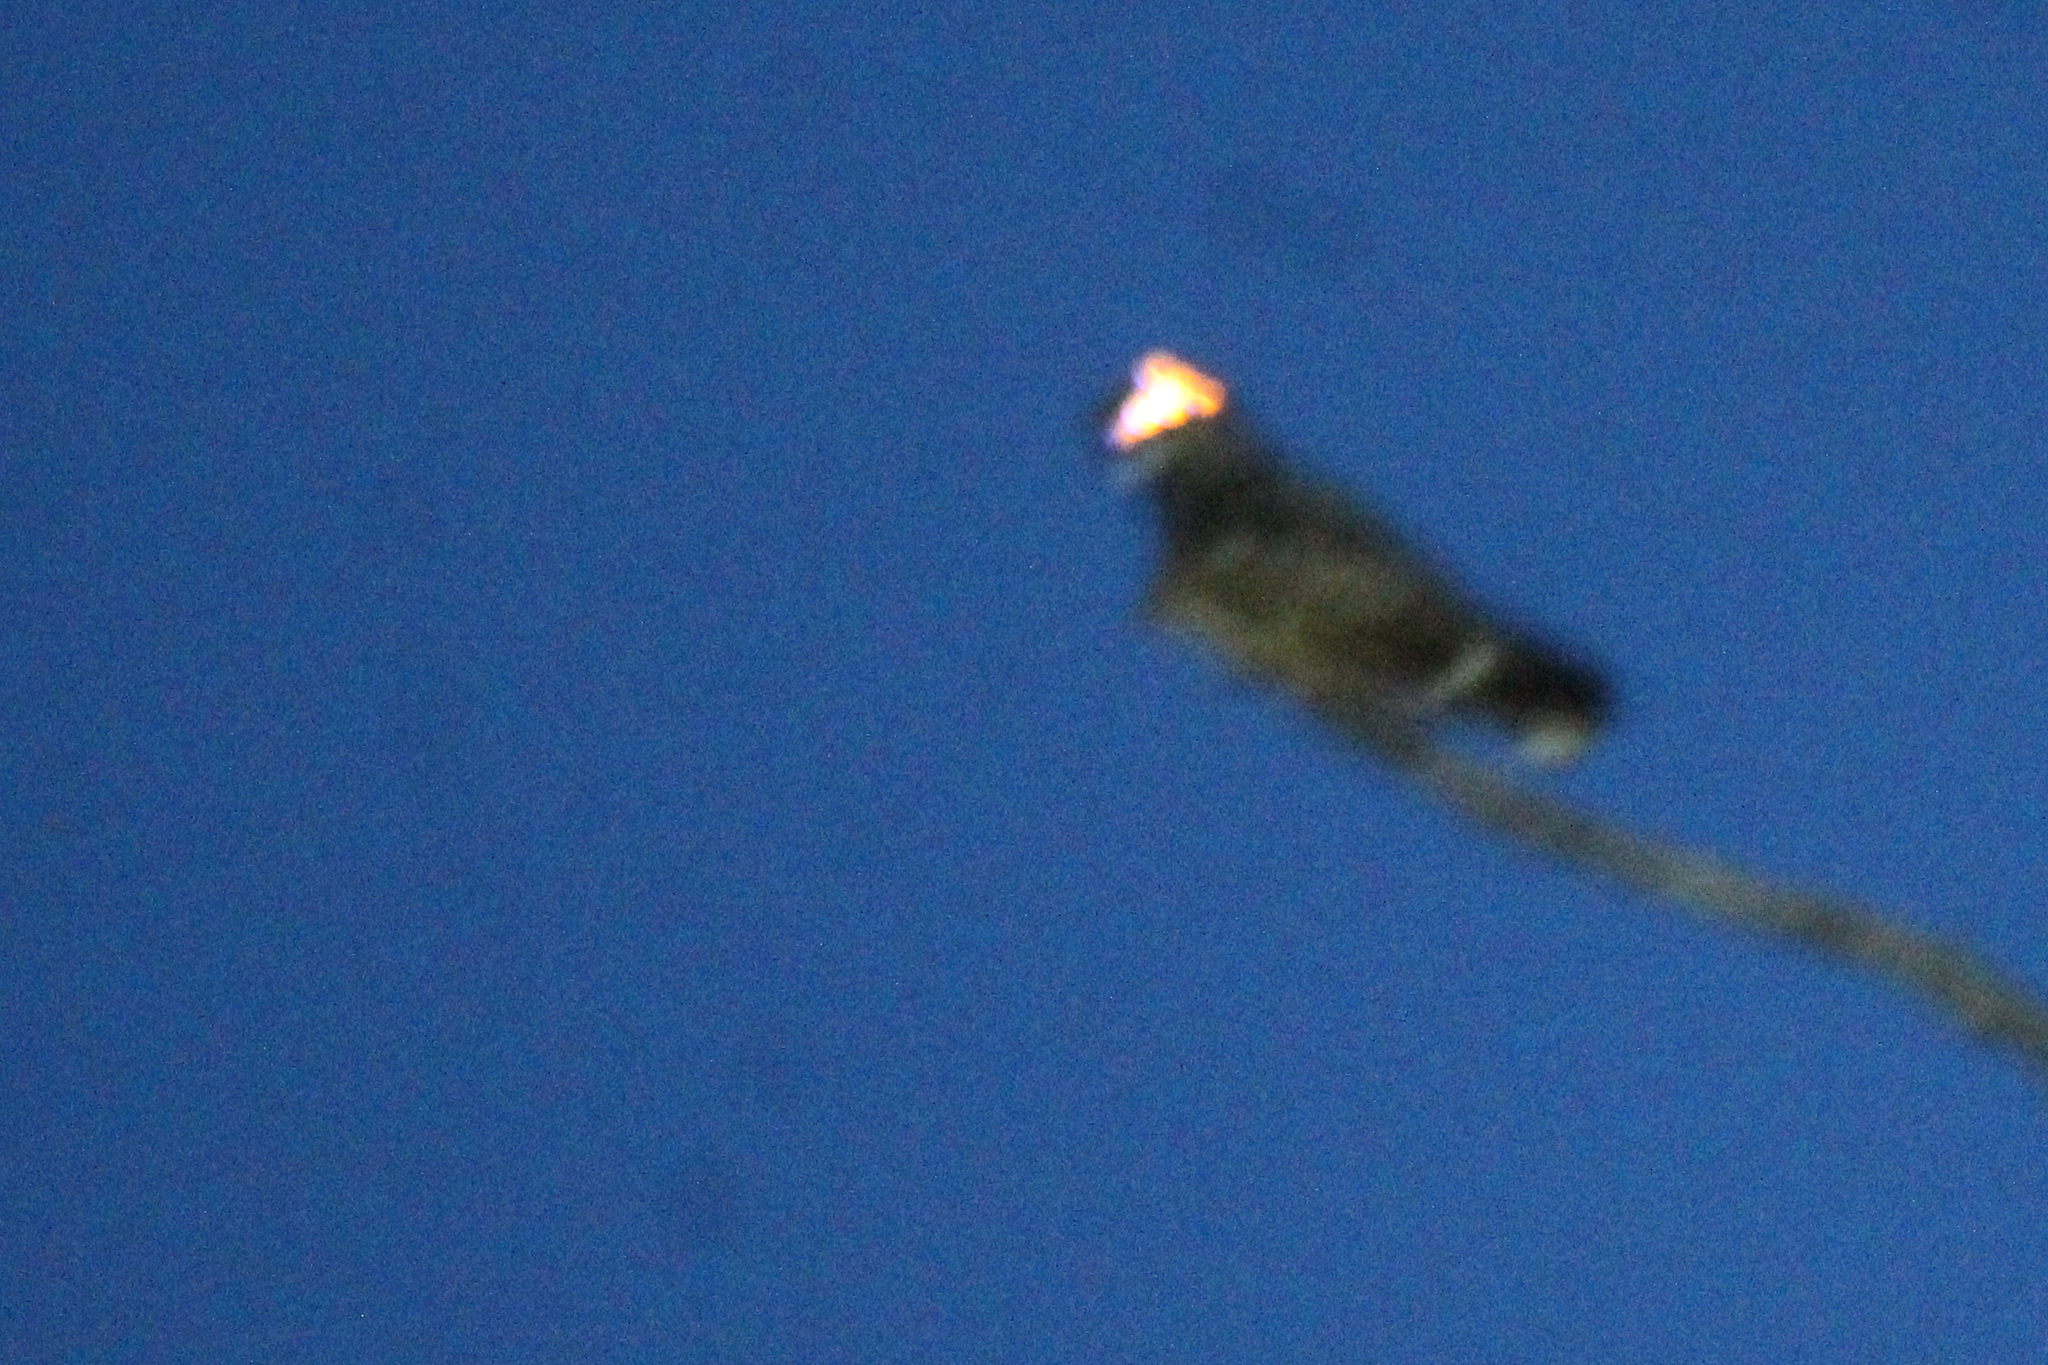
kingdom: Animalia
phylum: Chordata
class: Aves
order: Caprimulgiformes
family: Caprimulgidae
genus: Caprimulgus
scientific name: Caprimulgus jotaka
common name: Grey nightjar
